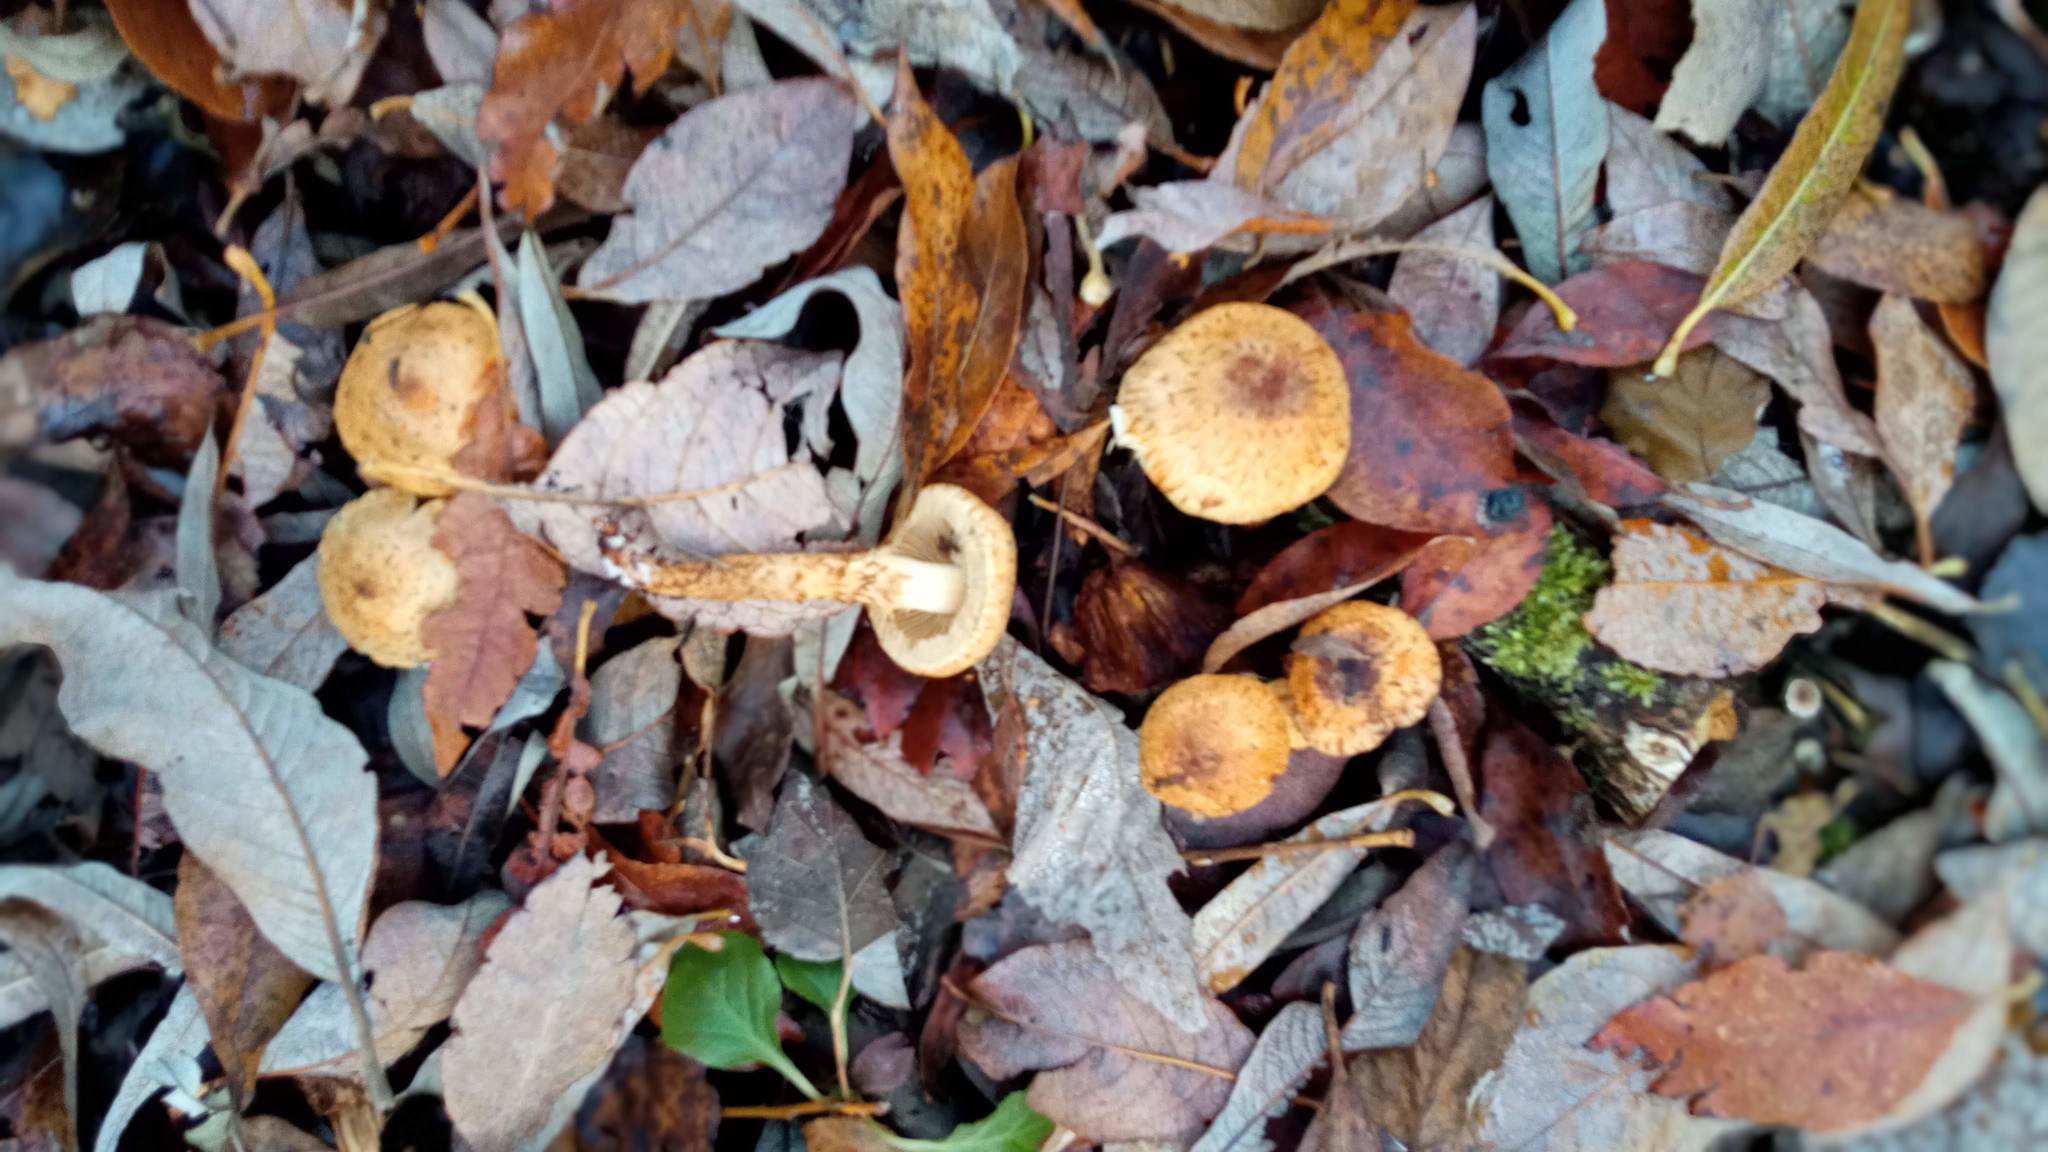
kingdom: Fungi
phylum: Basidiomycota
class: Agaricomycetes
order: Agaricales
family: Strophariaceae
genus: Pholiota
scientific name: Pholiota squarrosa
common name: Shaggy pholiota
